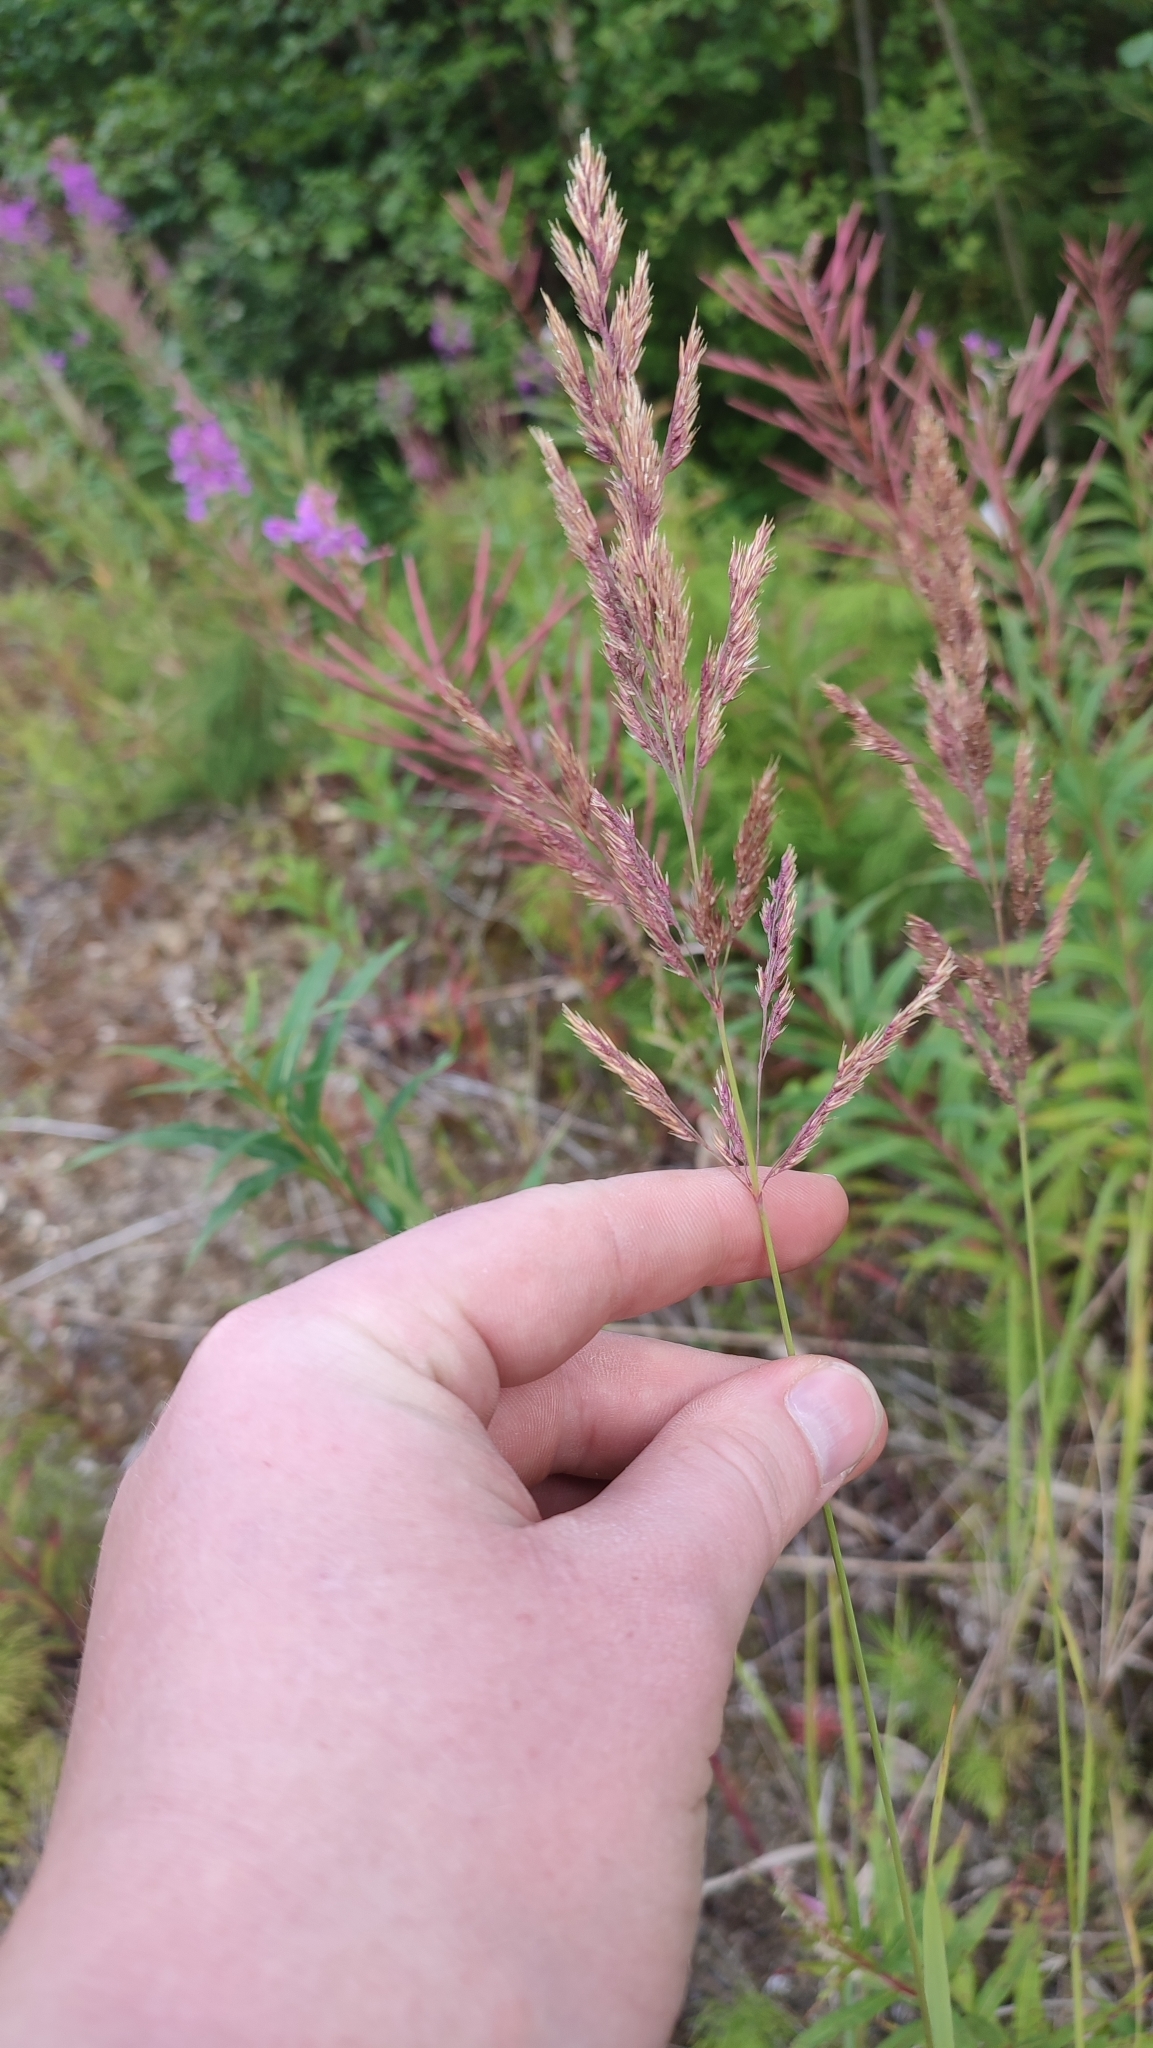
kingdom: Plantae
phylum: Tracheophyta
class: Liliopsida
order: Poales
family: Poaceae
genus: Calamagrostis
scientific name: Calamagrostis purpurea
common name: Scandinavian small-reed
